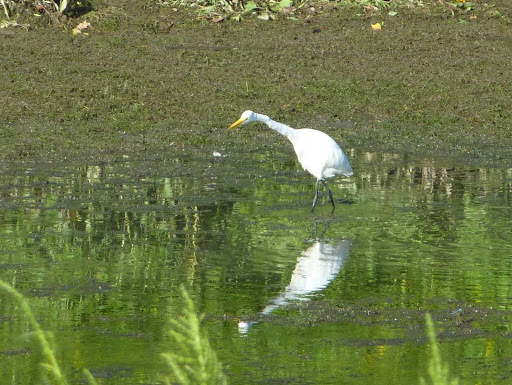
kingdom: Animalia
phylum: Chordata
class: Aves
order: Pelecaniformes
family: Ardeidae
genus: Ardea
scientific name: Ardea alba
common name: Great egret
